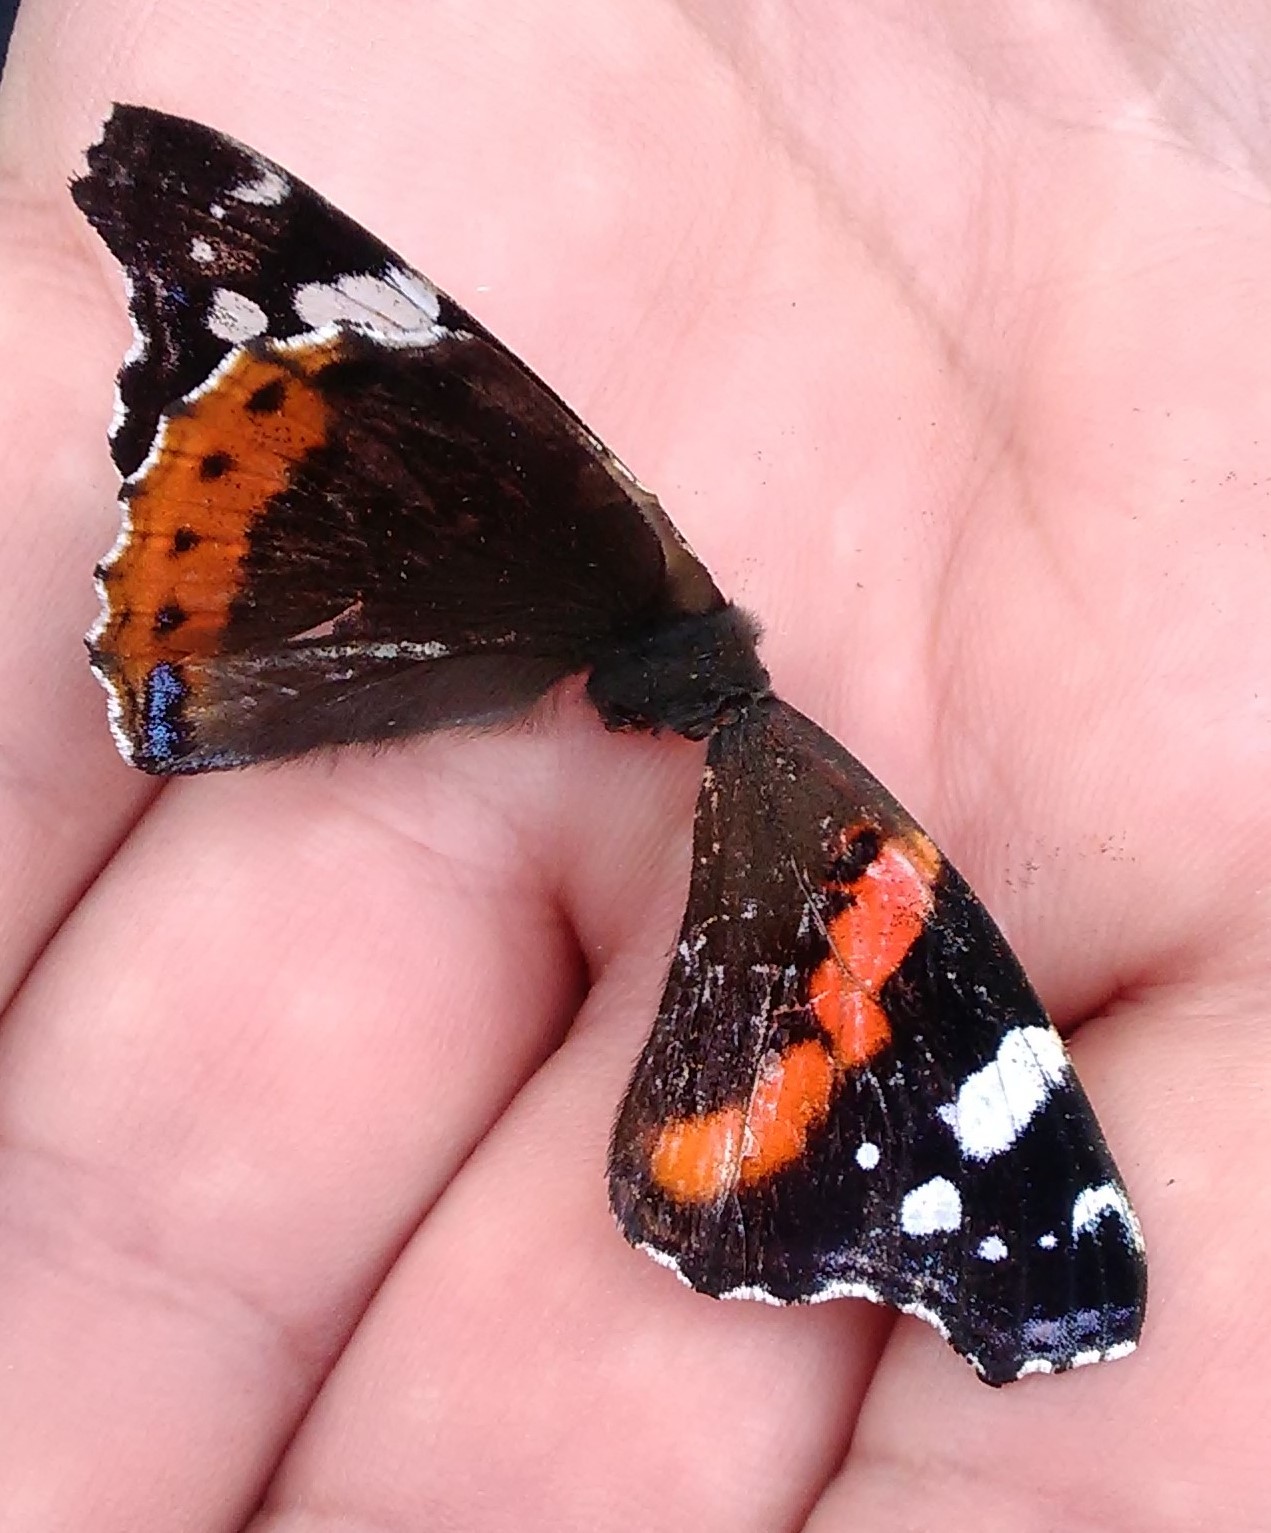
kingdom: Animalia
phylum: Arthropoda
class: Insecta
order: Lepidoptera
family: Nymphalidae
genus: Vanessa
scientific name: Vanessa atalanta
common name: Red admiral
